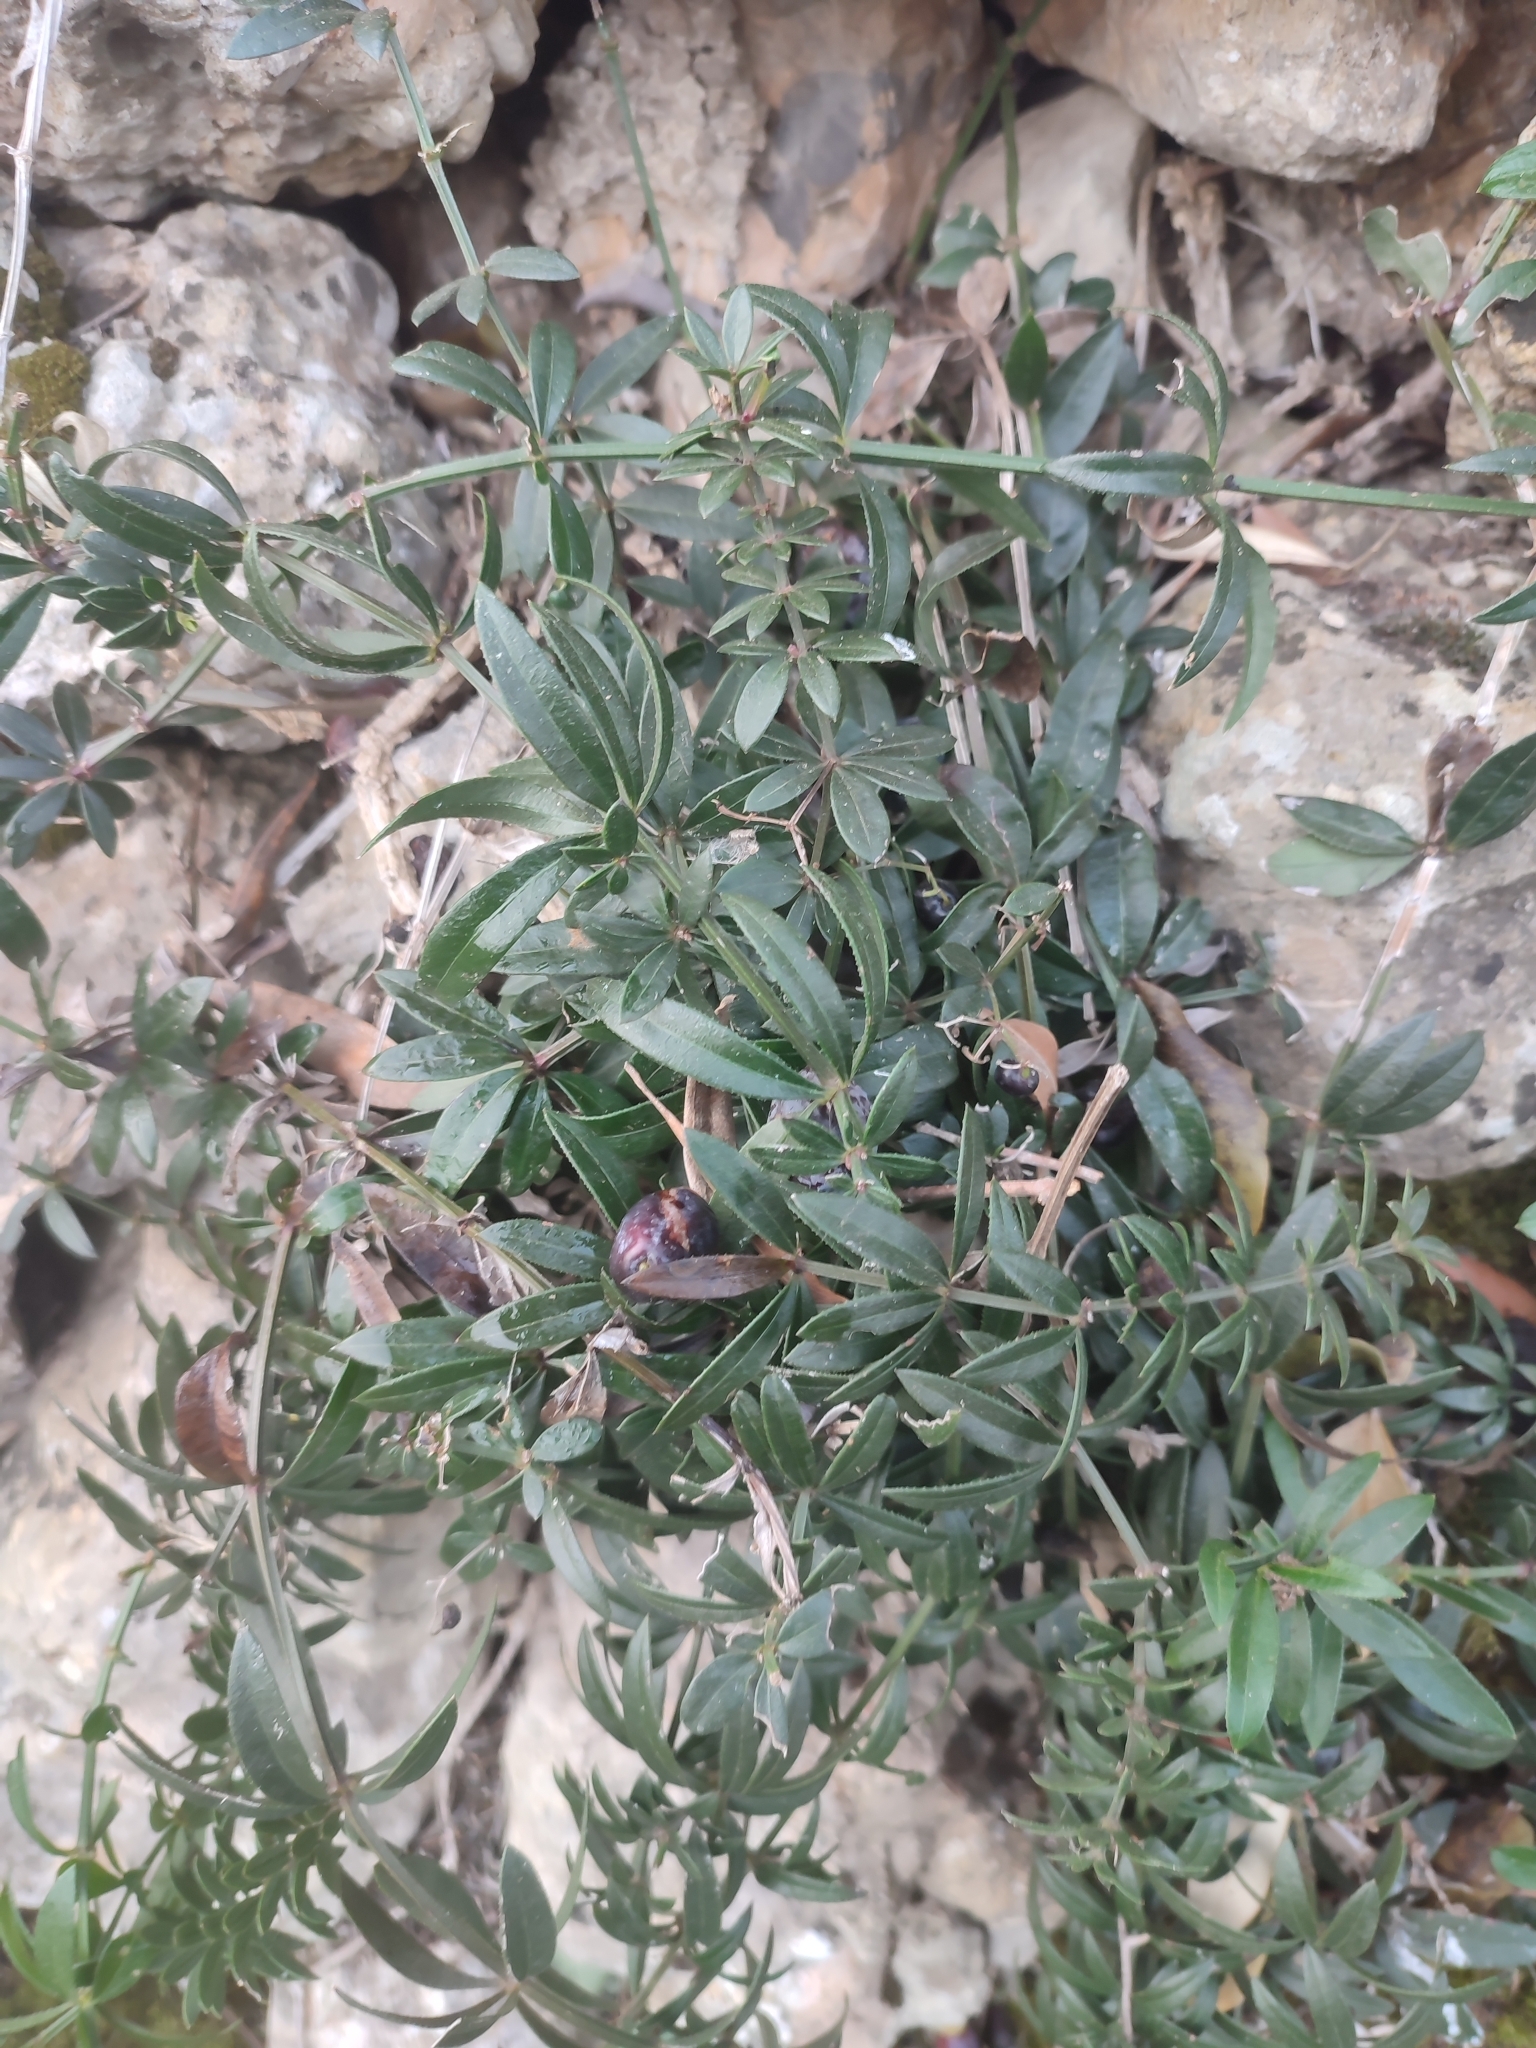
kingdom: Plantae
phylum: Tracheophyta
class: Magnoliopsida
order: Gentianales
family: Rubiaceae
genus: Rubia
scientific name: Rubia peregrina
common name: Wild madder
